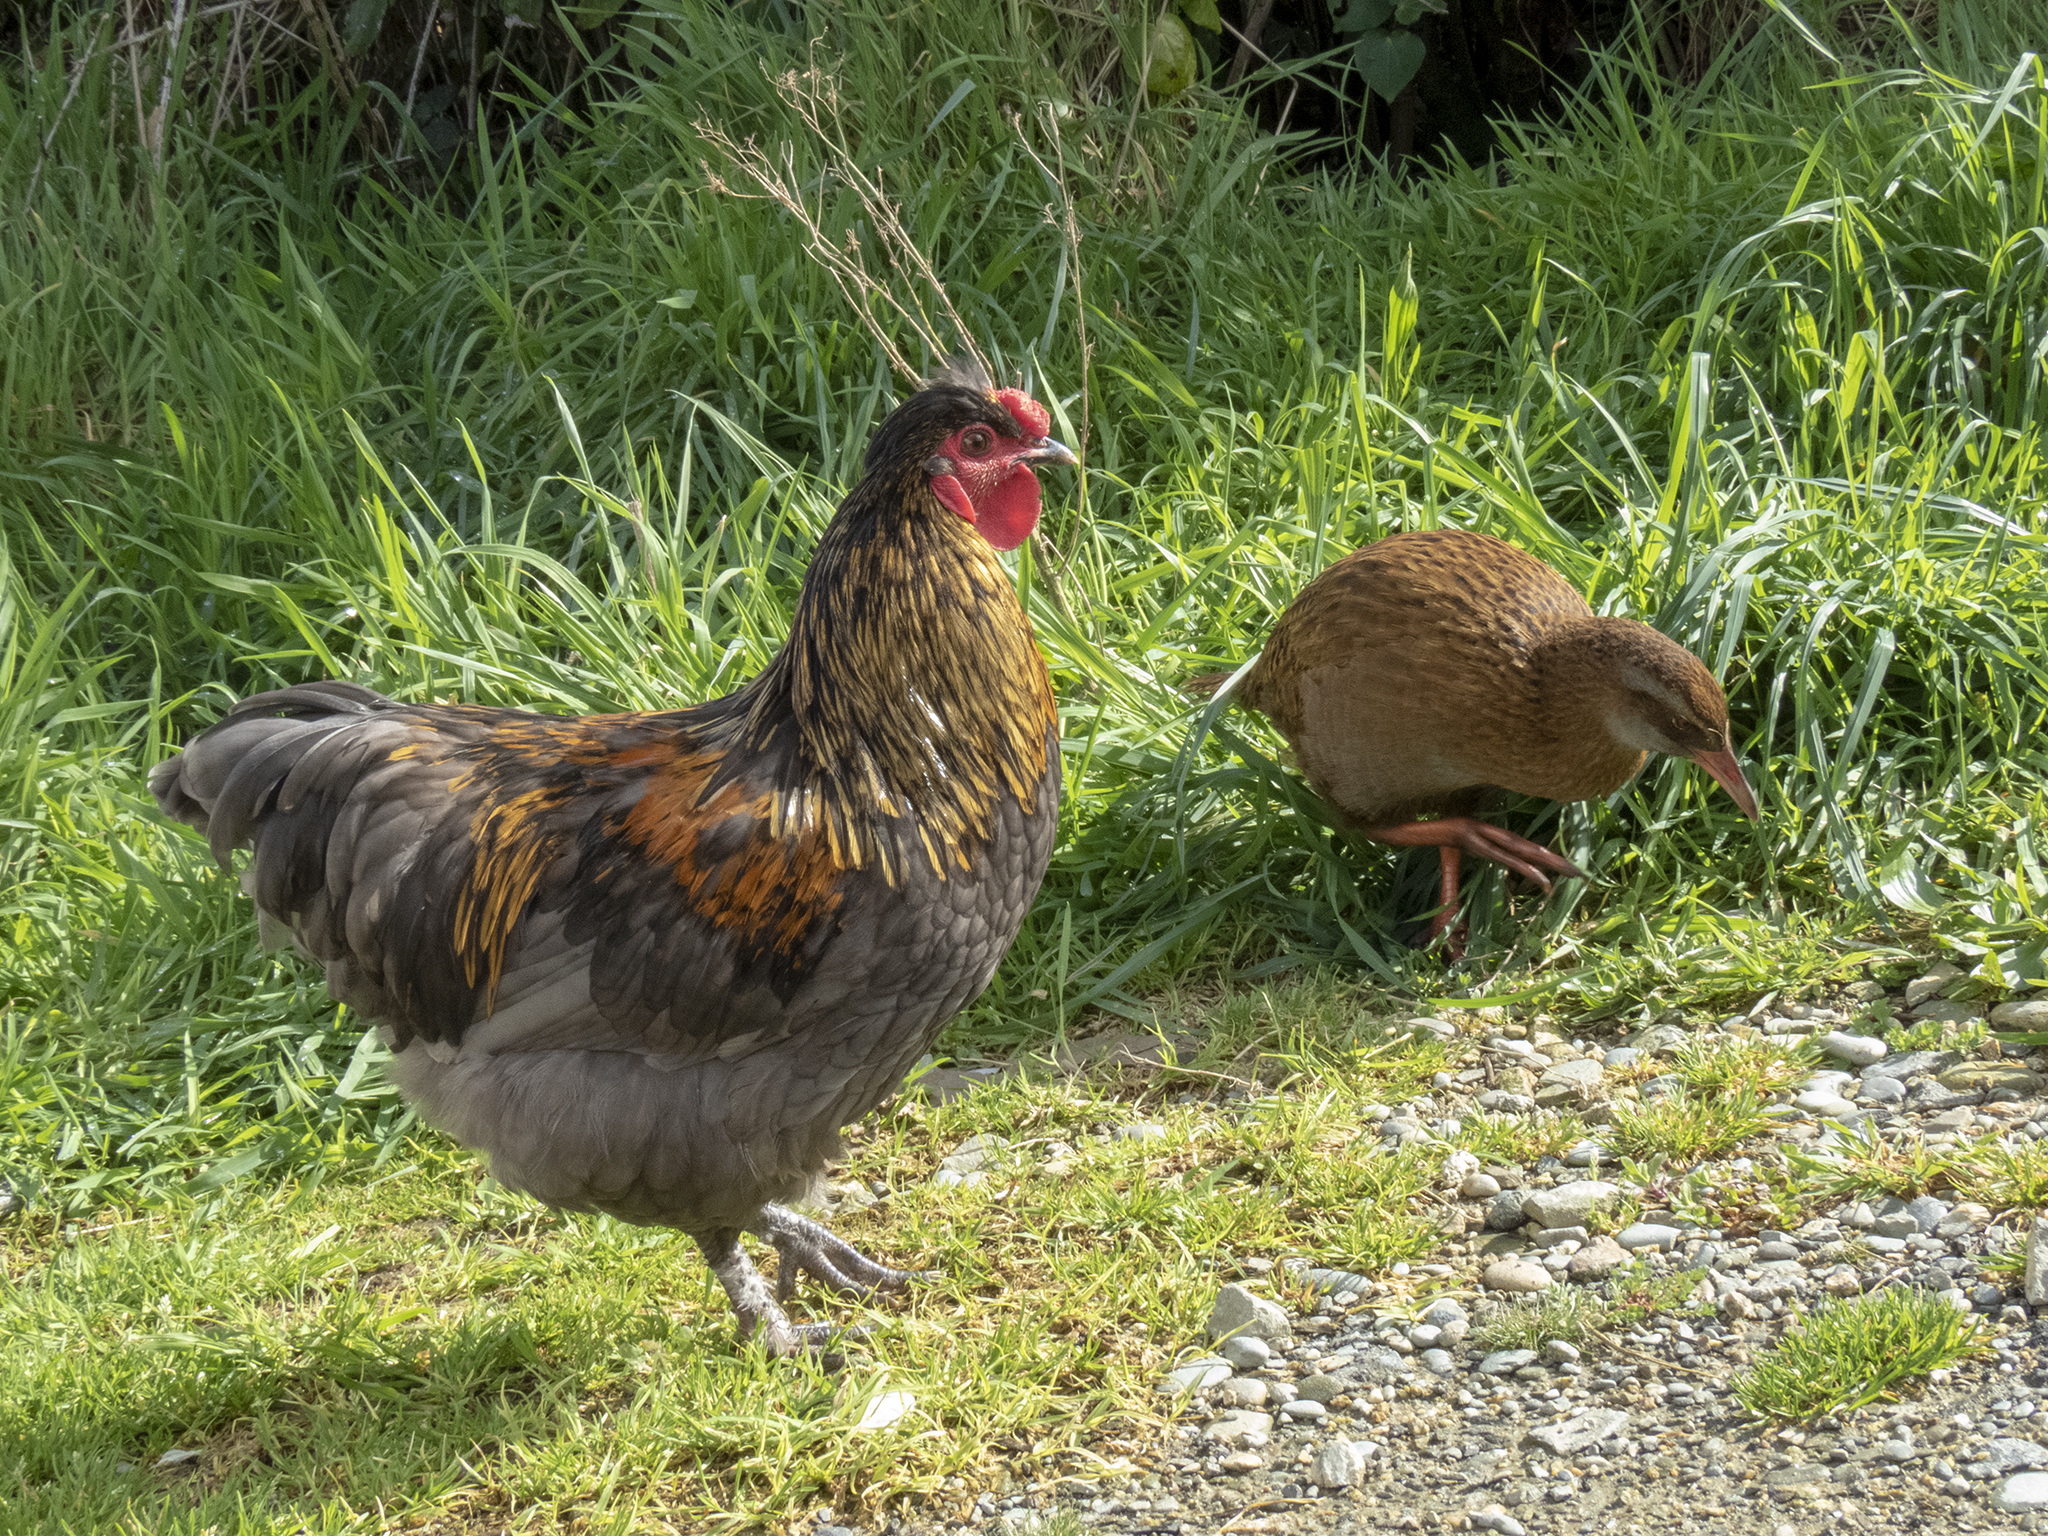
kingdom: Animalia
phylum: Chordata
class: Aves
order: Galliformes
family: Phasianidae
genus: Gallus
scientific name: Gallus gallus
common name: Red junglefowl
